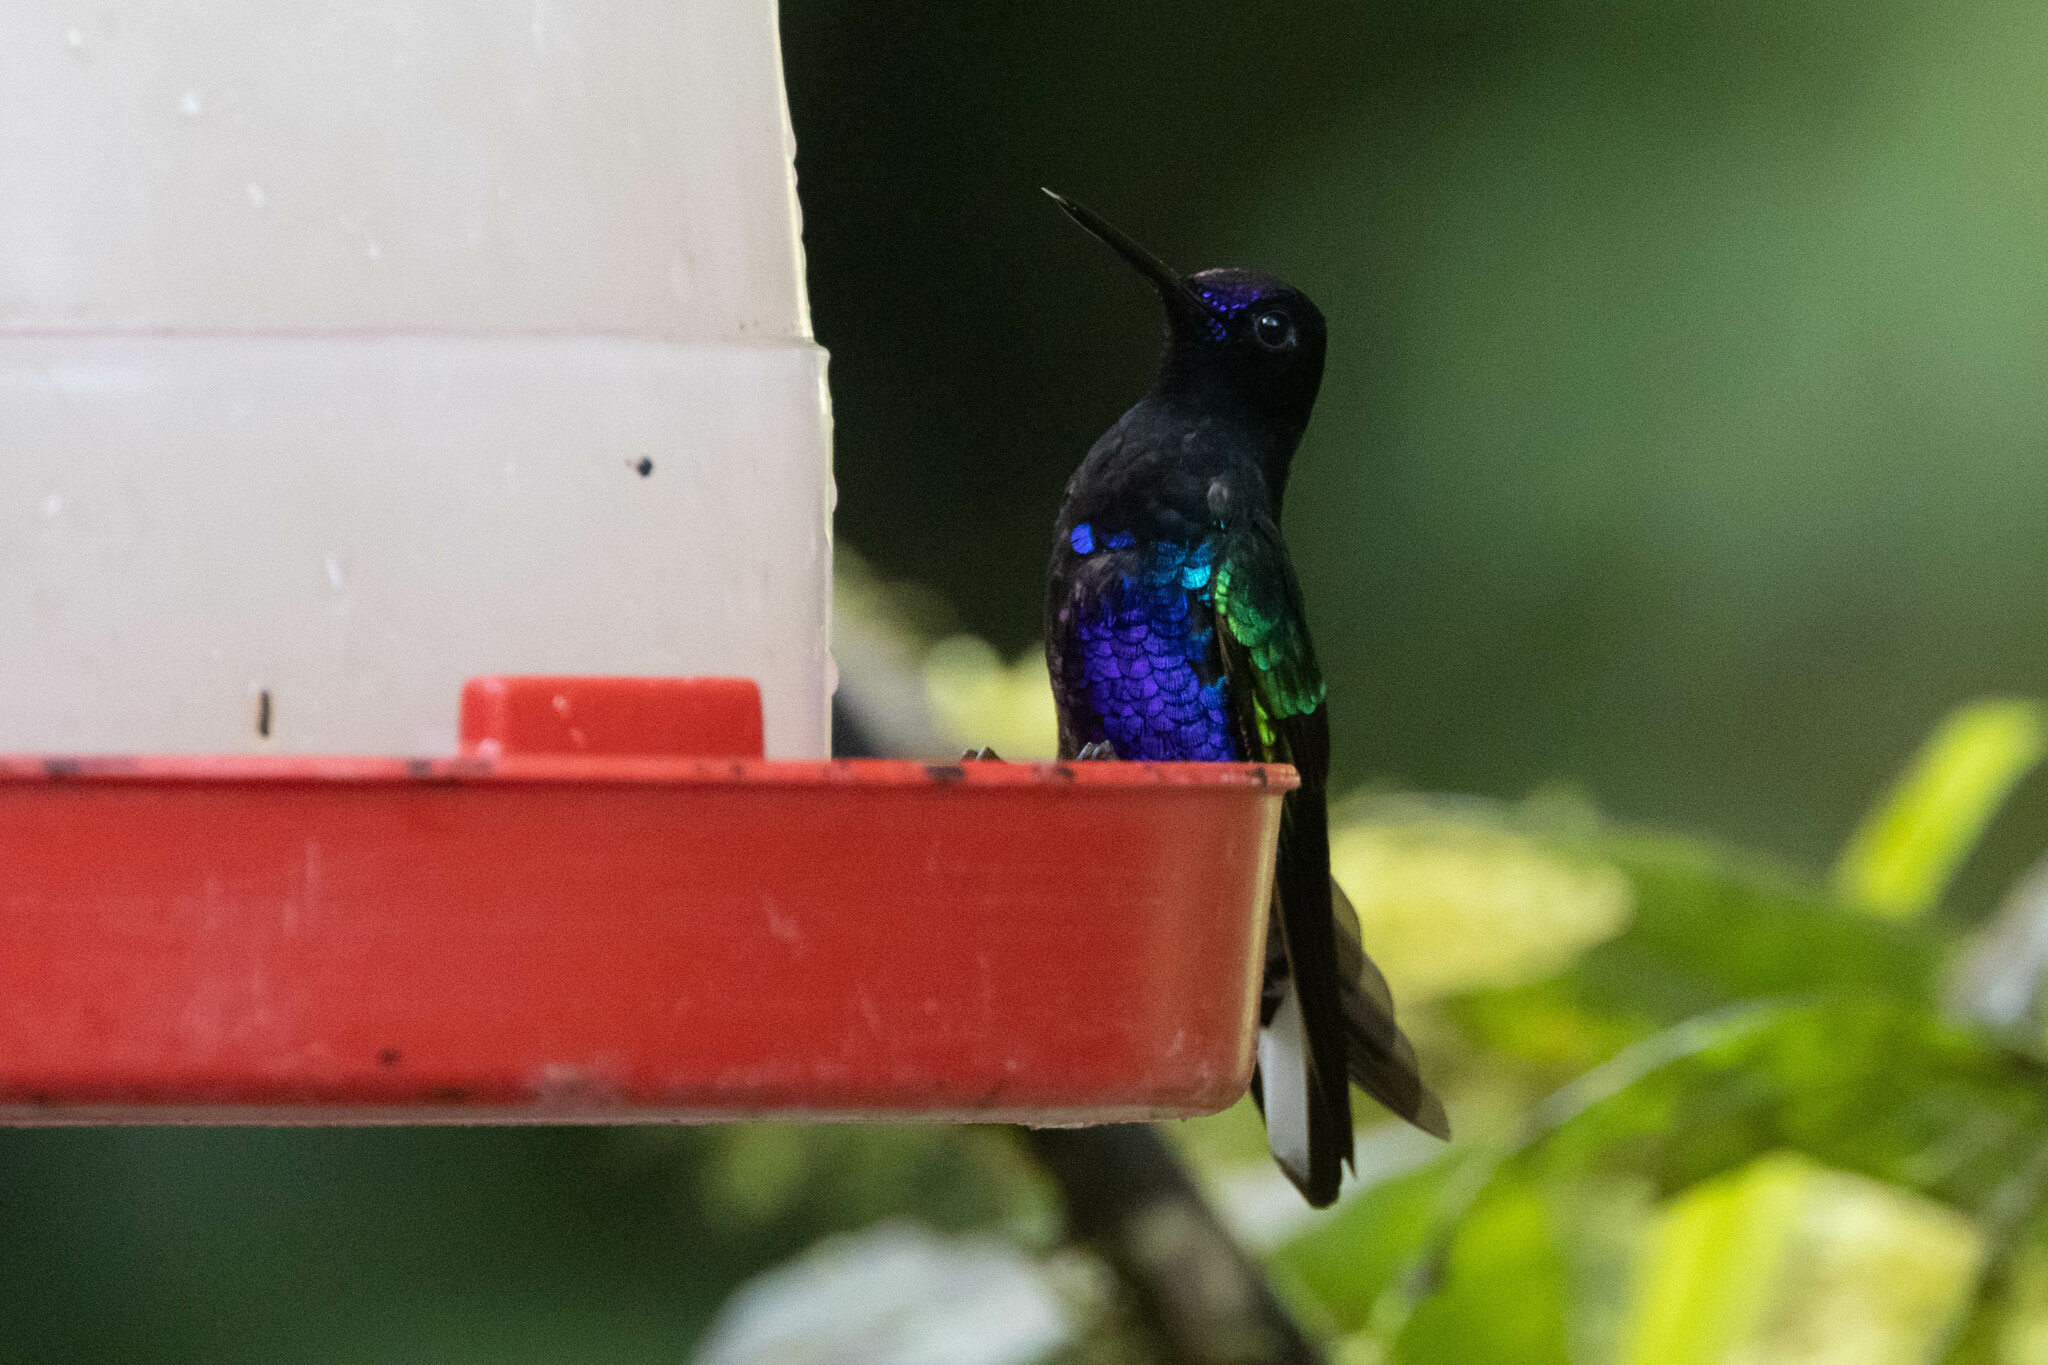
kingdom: Animalia
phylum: Chordata
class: Aves
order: Apodiformes
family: Trochilidae
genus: Boissonneaua
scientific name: Boissonneaua jardini
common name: Velvet-purple coronet
